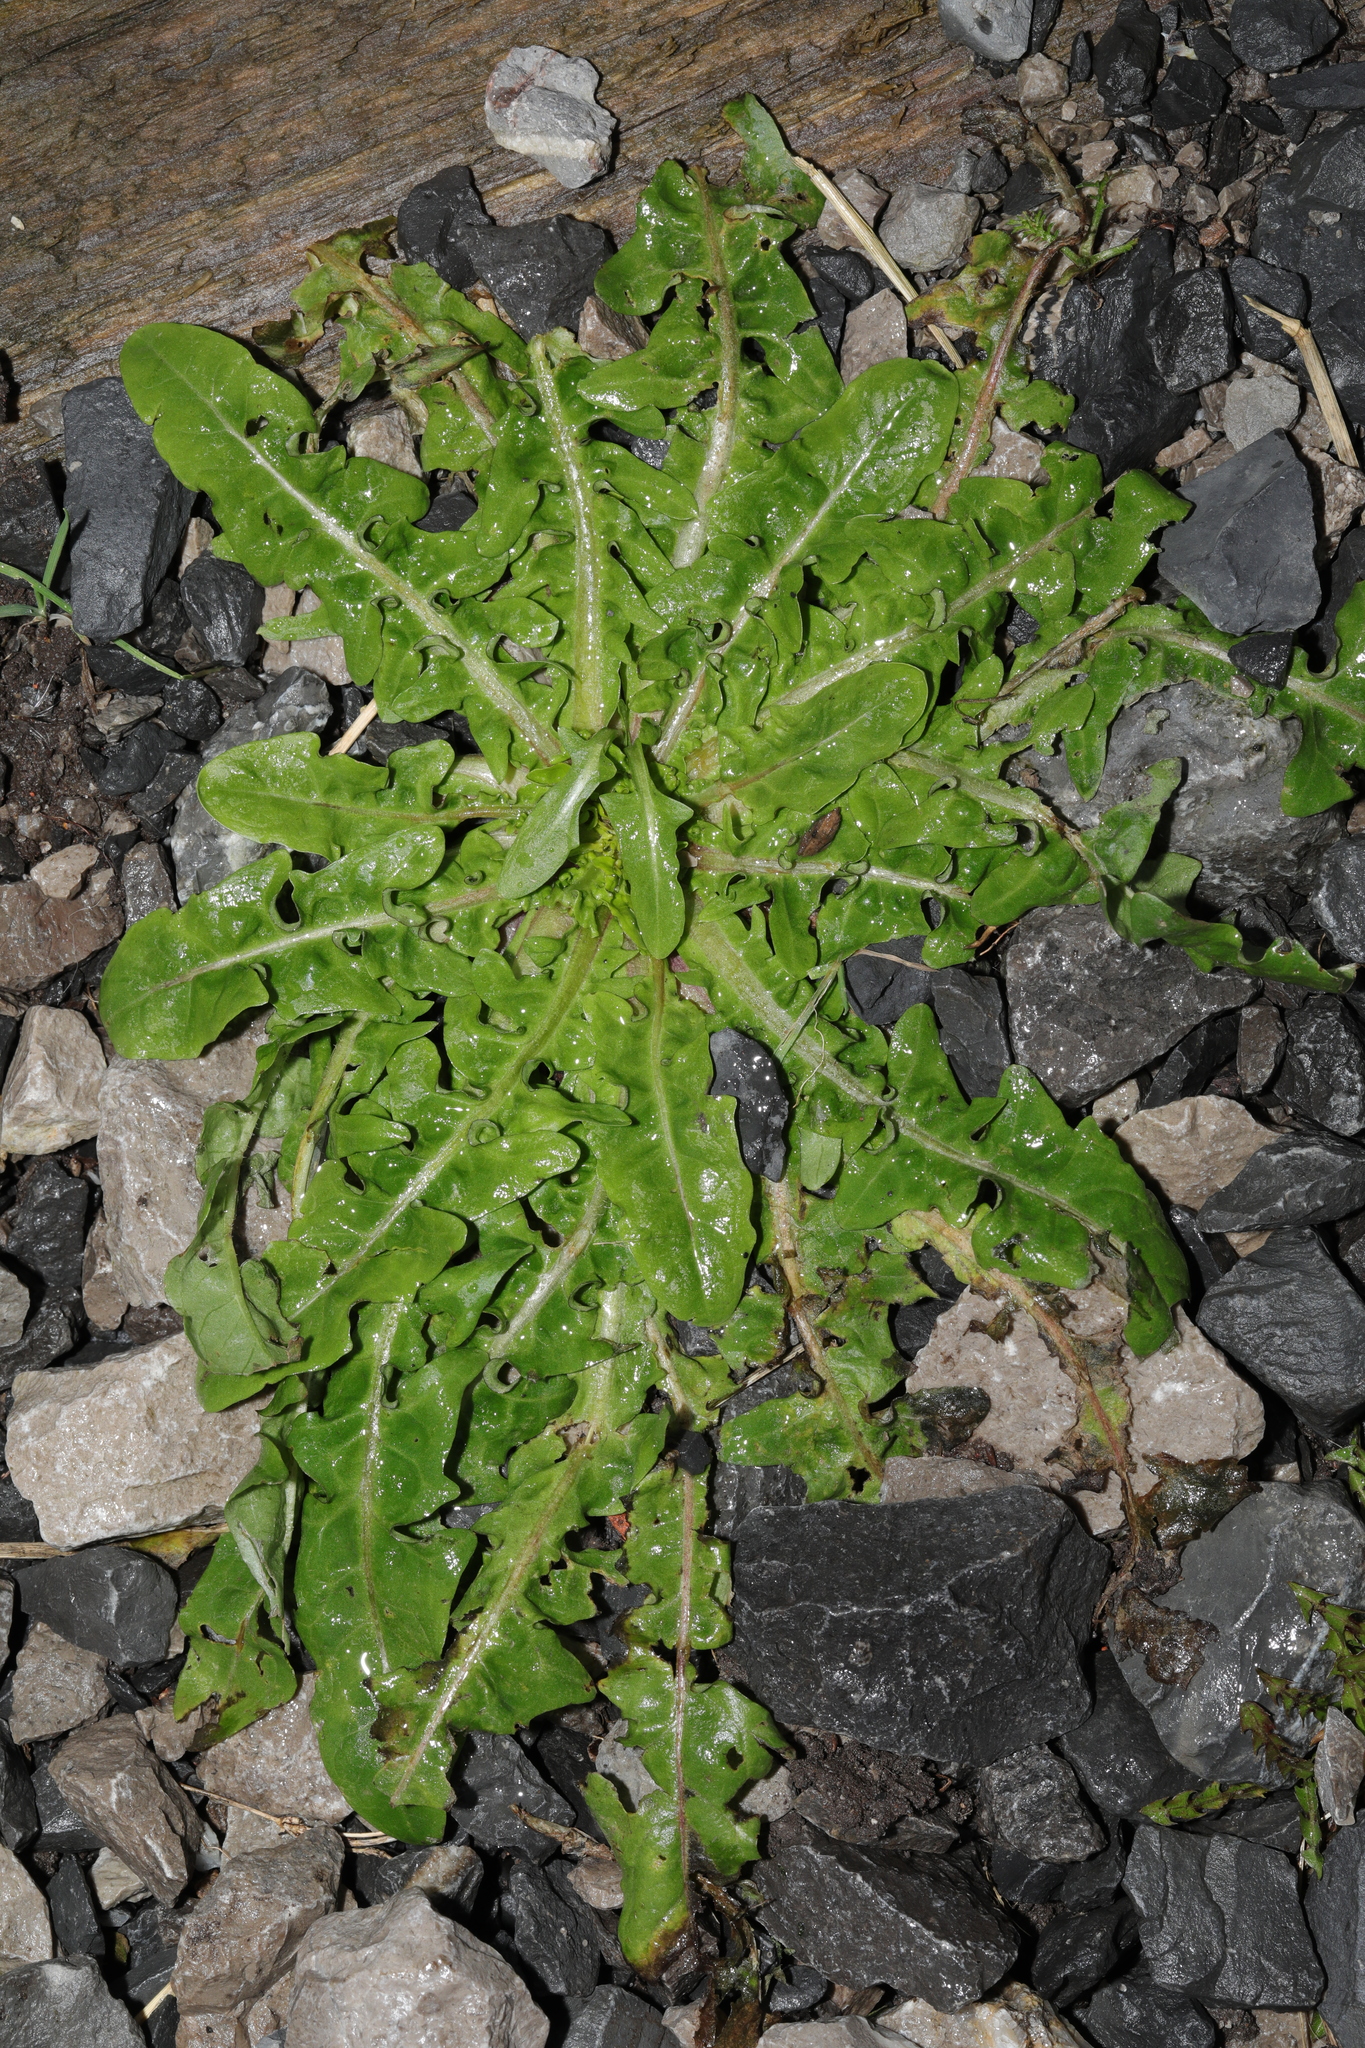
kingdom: Plantae
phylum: Tracheophyta
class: Magnoliopsida
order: Asterales
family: Asteraceae
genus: Taraxacum
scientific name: Taraxacum officinale
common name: Common dandelion
